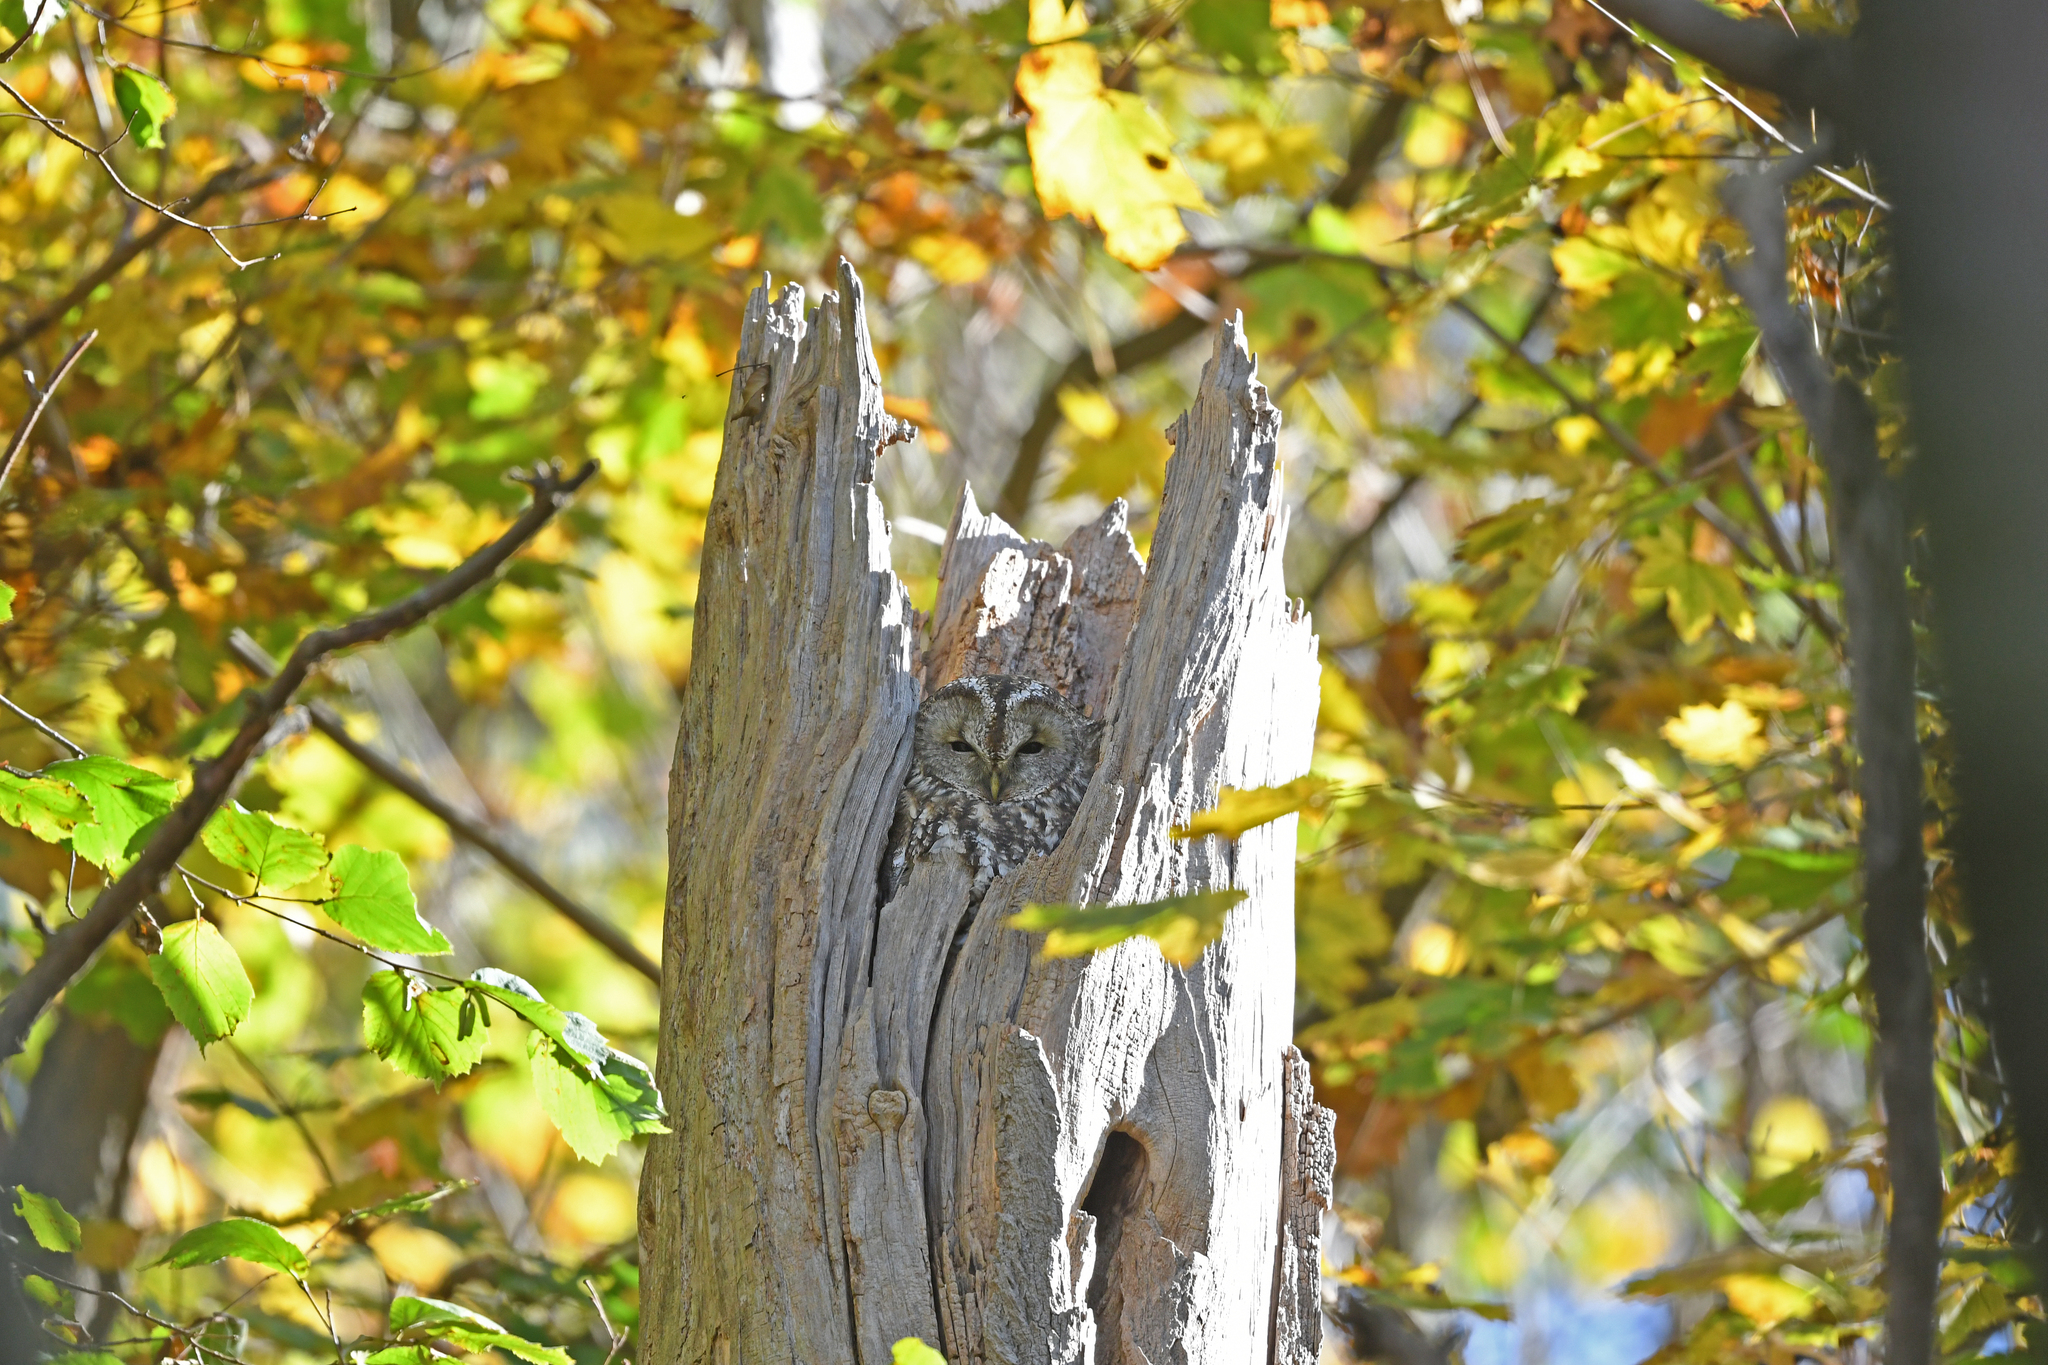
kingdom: Animalia
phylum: Chordata
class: Aves
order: Strigiformes
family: Strigidae
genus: Strix
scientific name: Strix aluco
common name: Tawny owl
